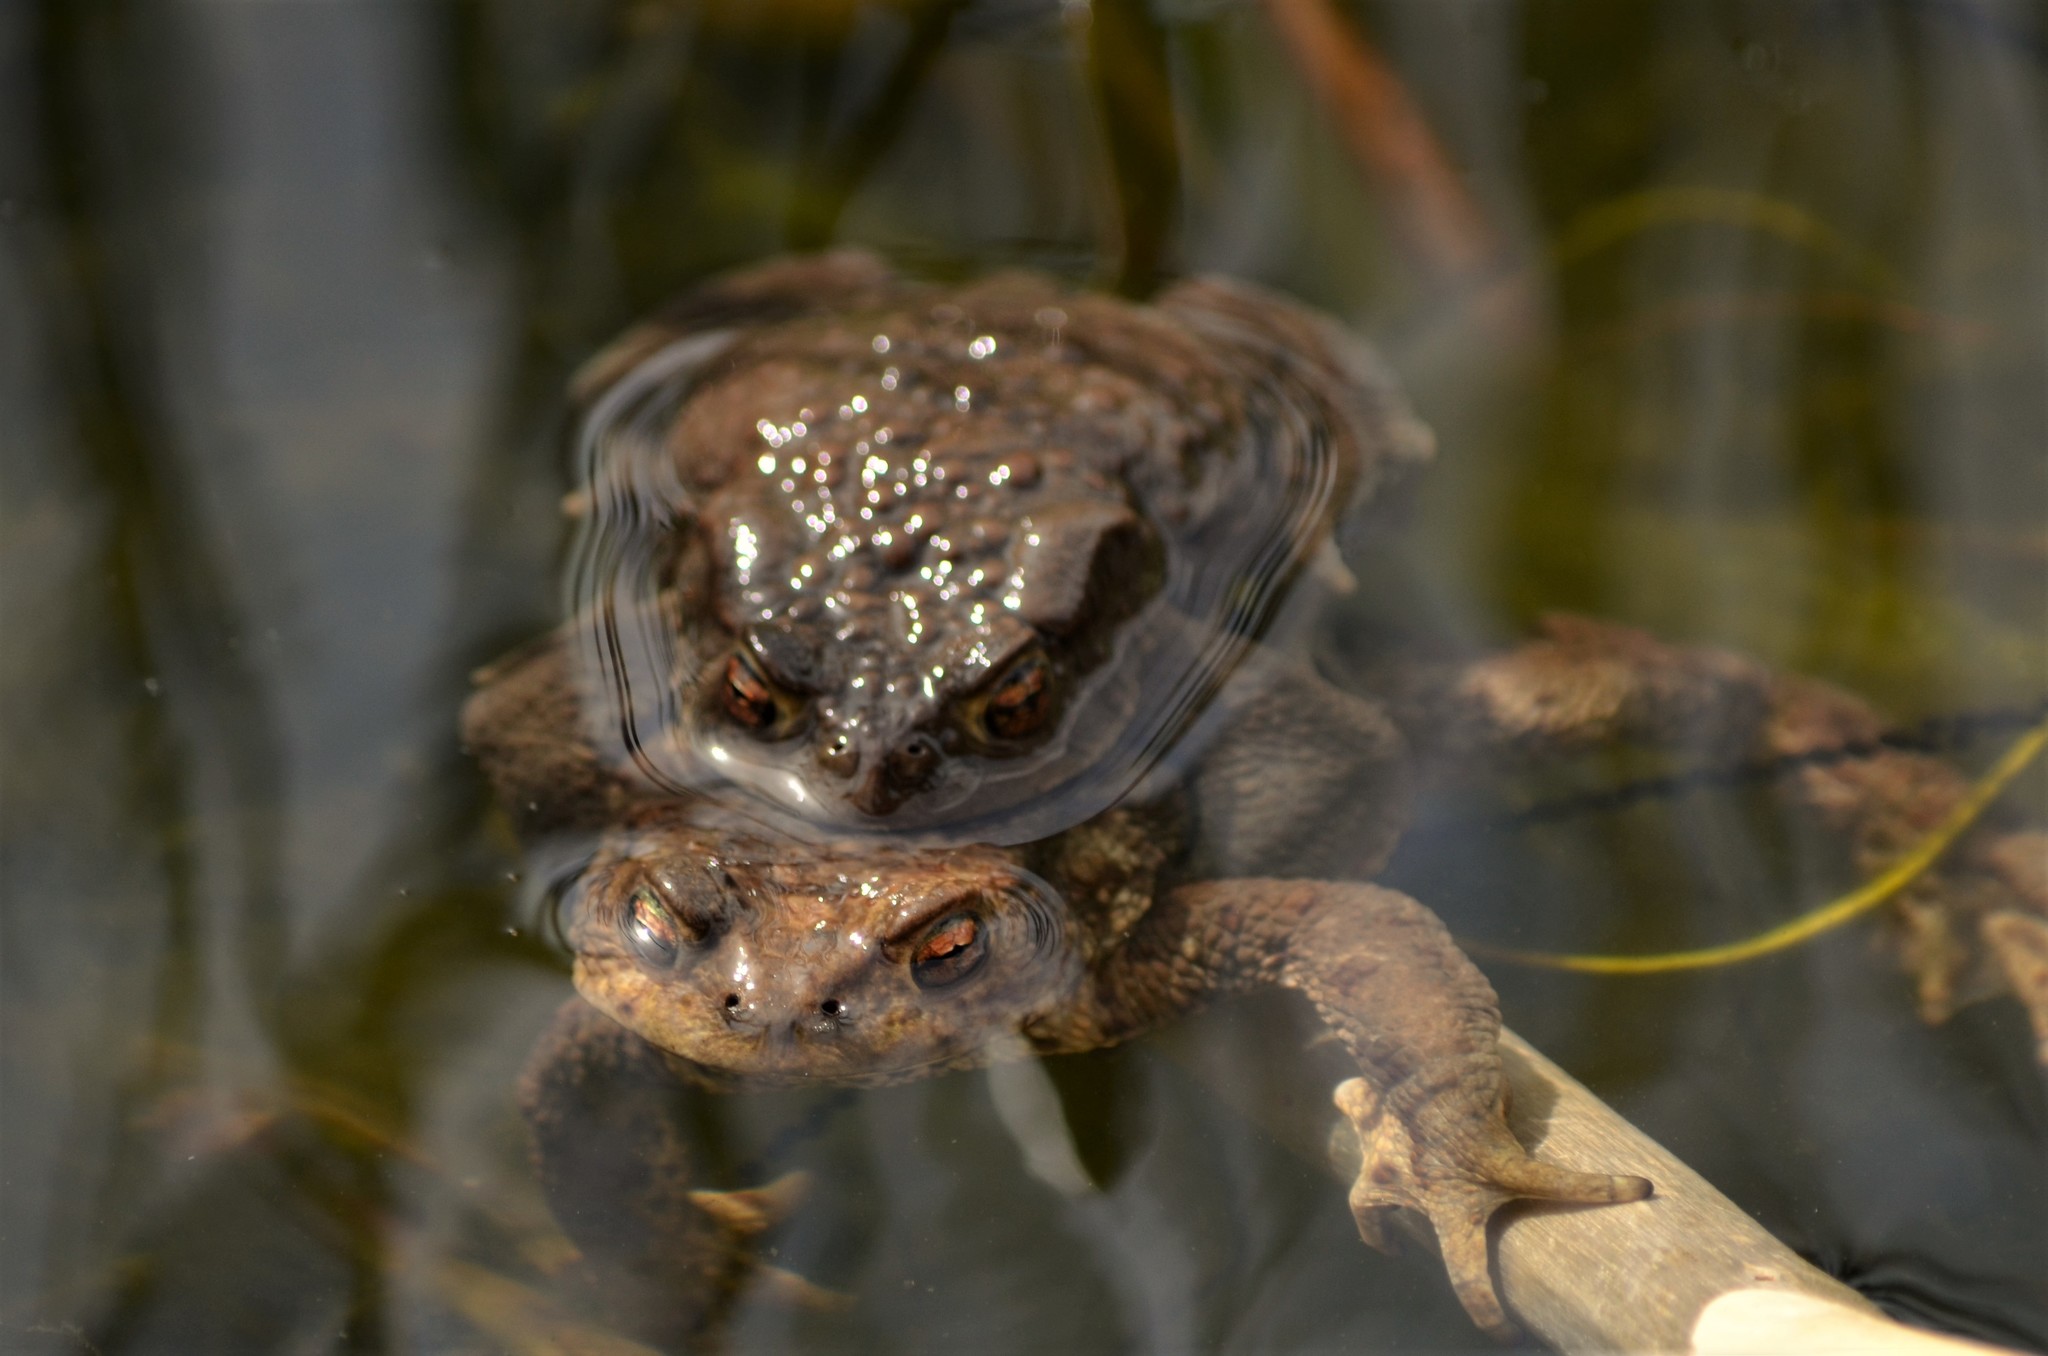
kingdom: Animalia
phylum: Chordata
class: Amphibia
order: Anura
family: Bufonidae
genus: Bufo
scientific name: Bufo bufo
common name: Common toad
